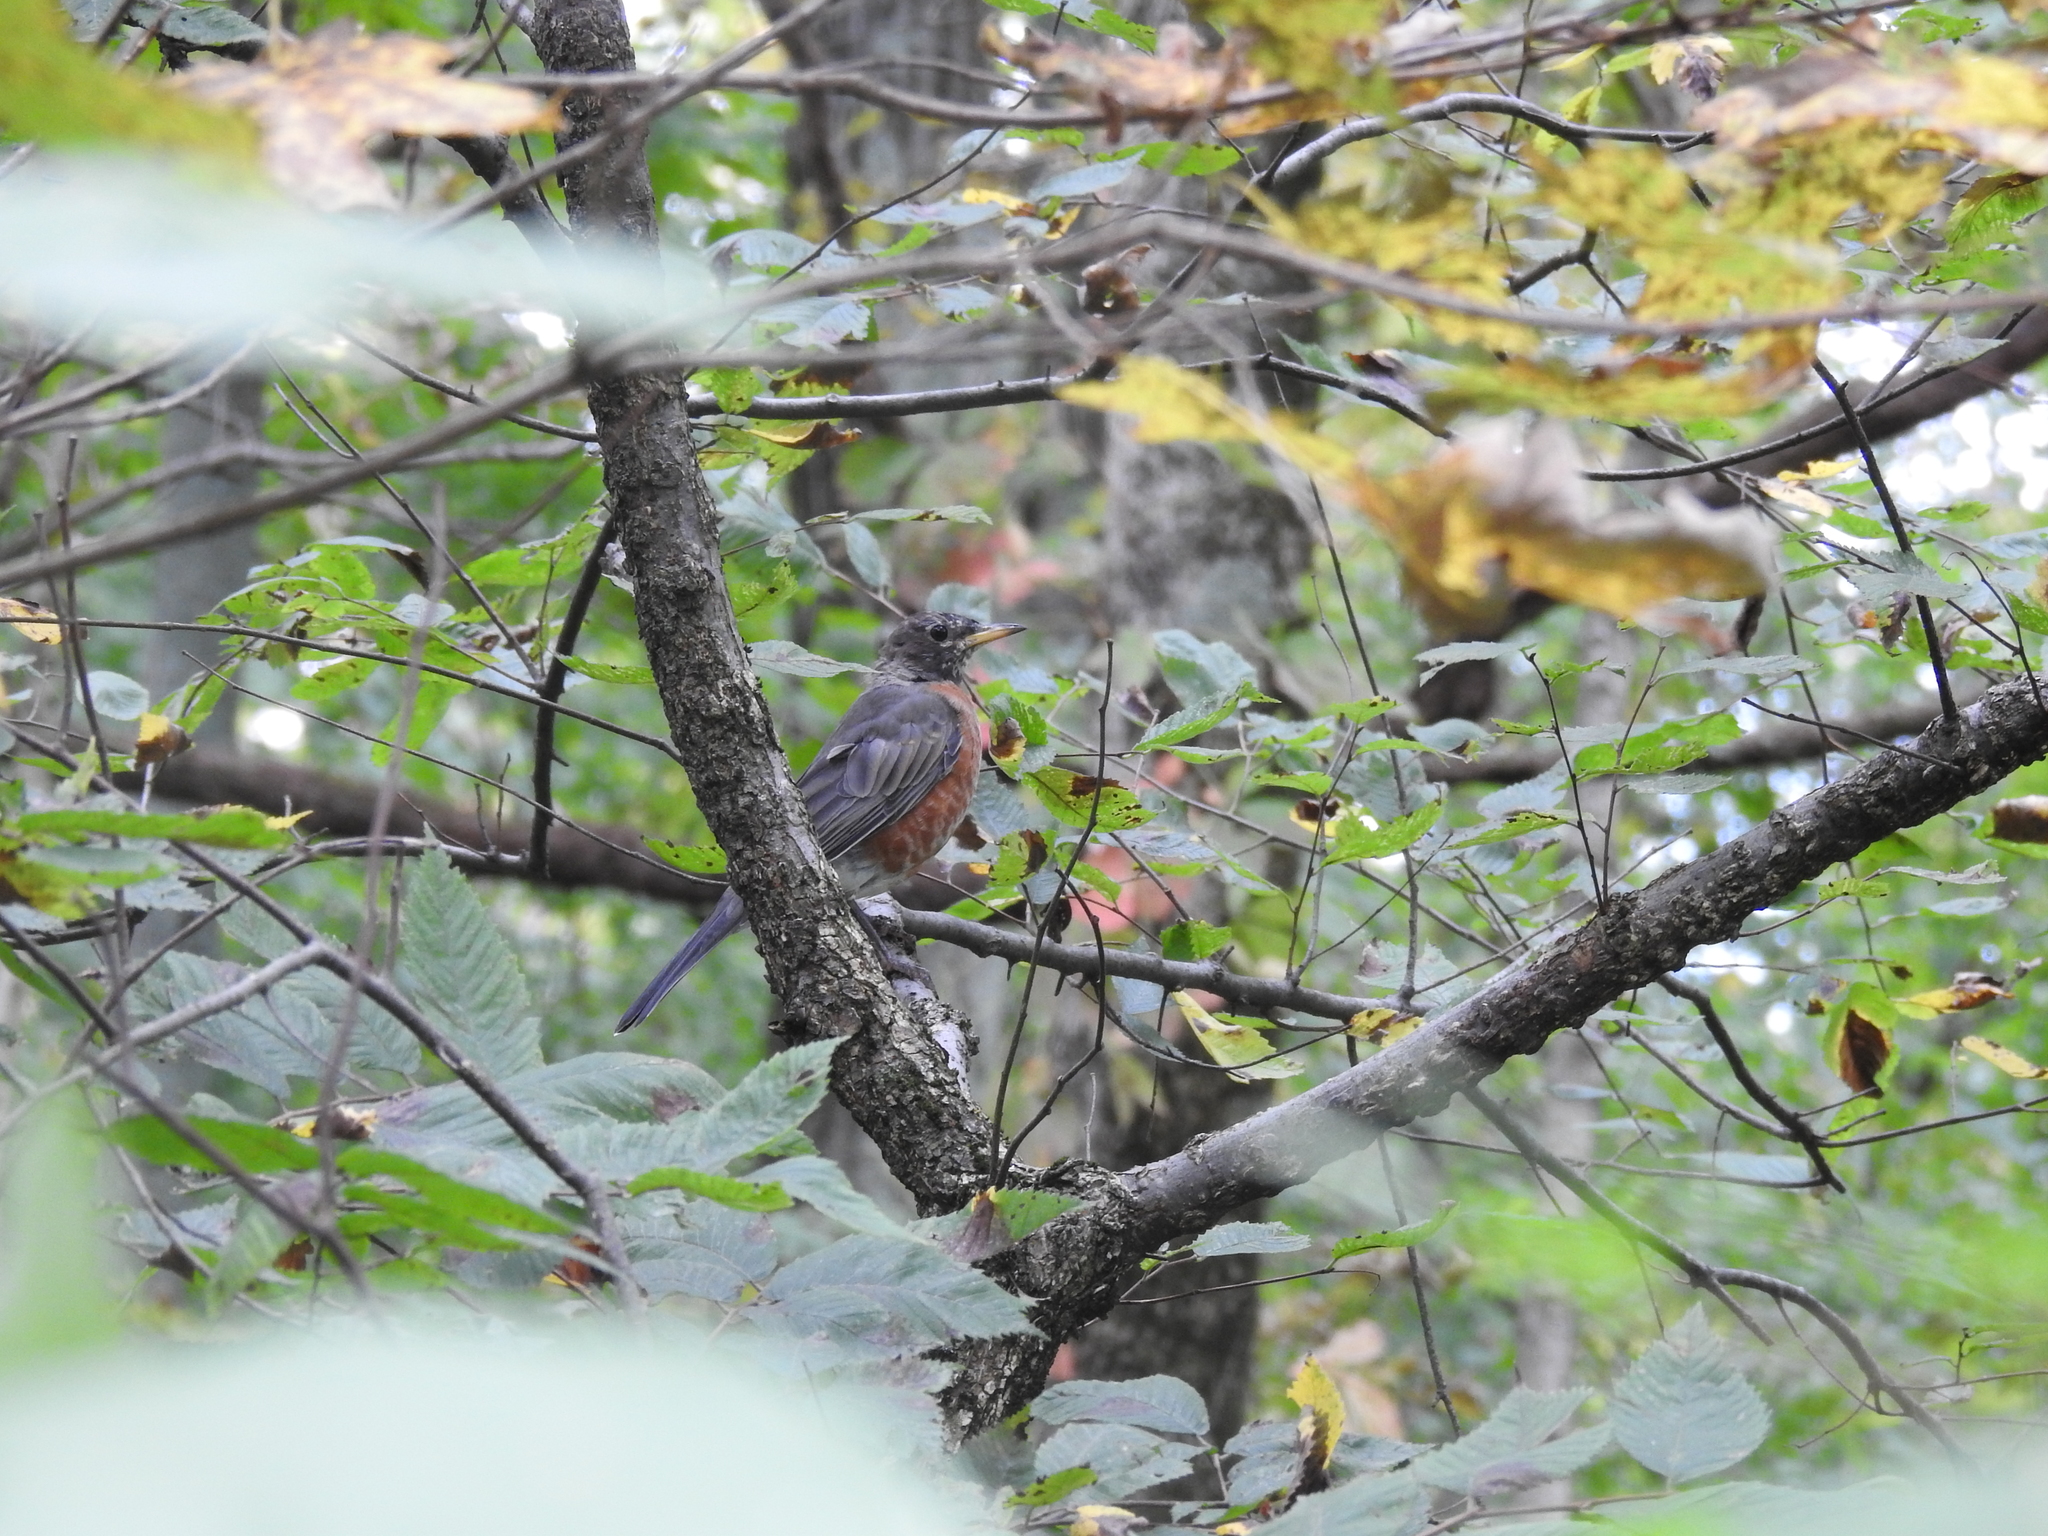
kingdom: Animalia
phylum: Chordata
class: Aves
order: Passeriformes
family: Turdidae
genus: Turdus
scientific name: Turdus migratorius
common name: American robin
